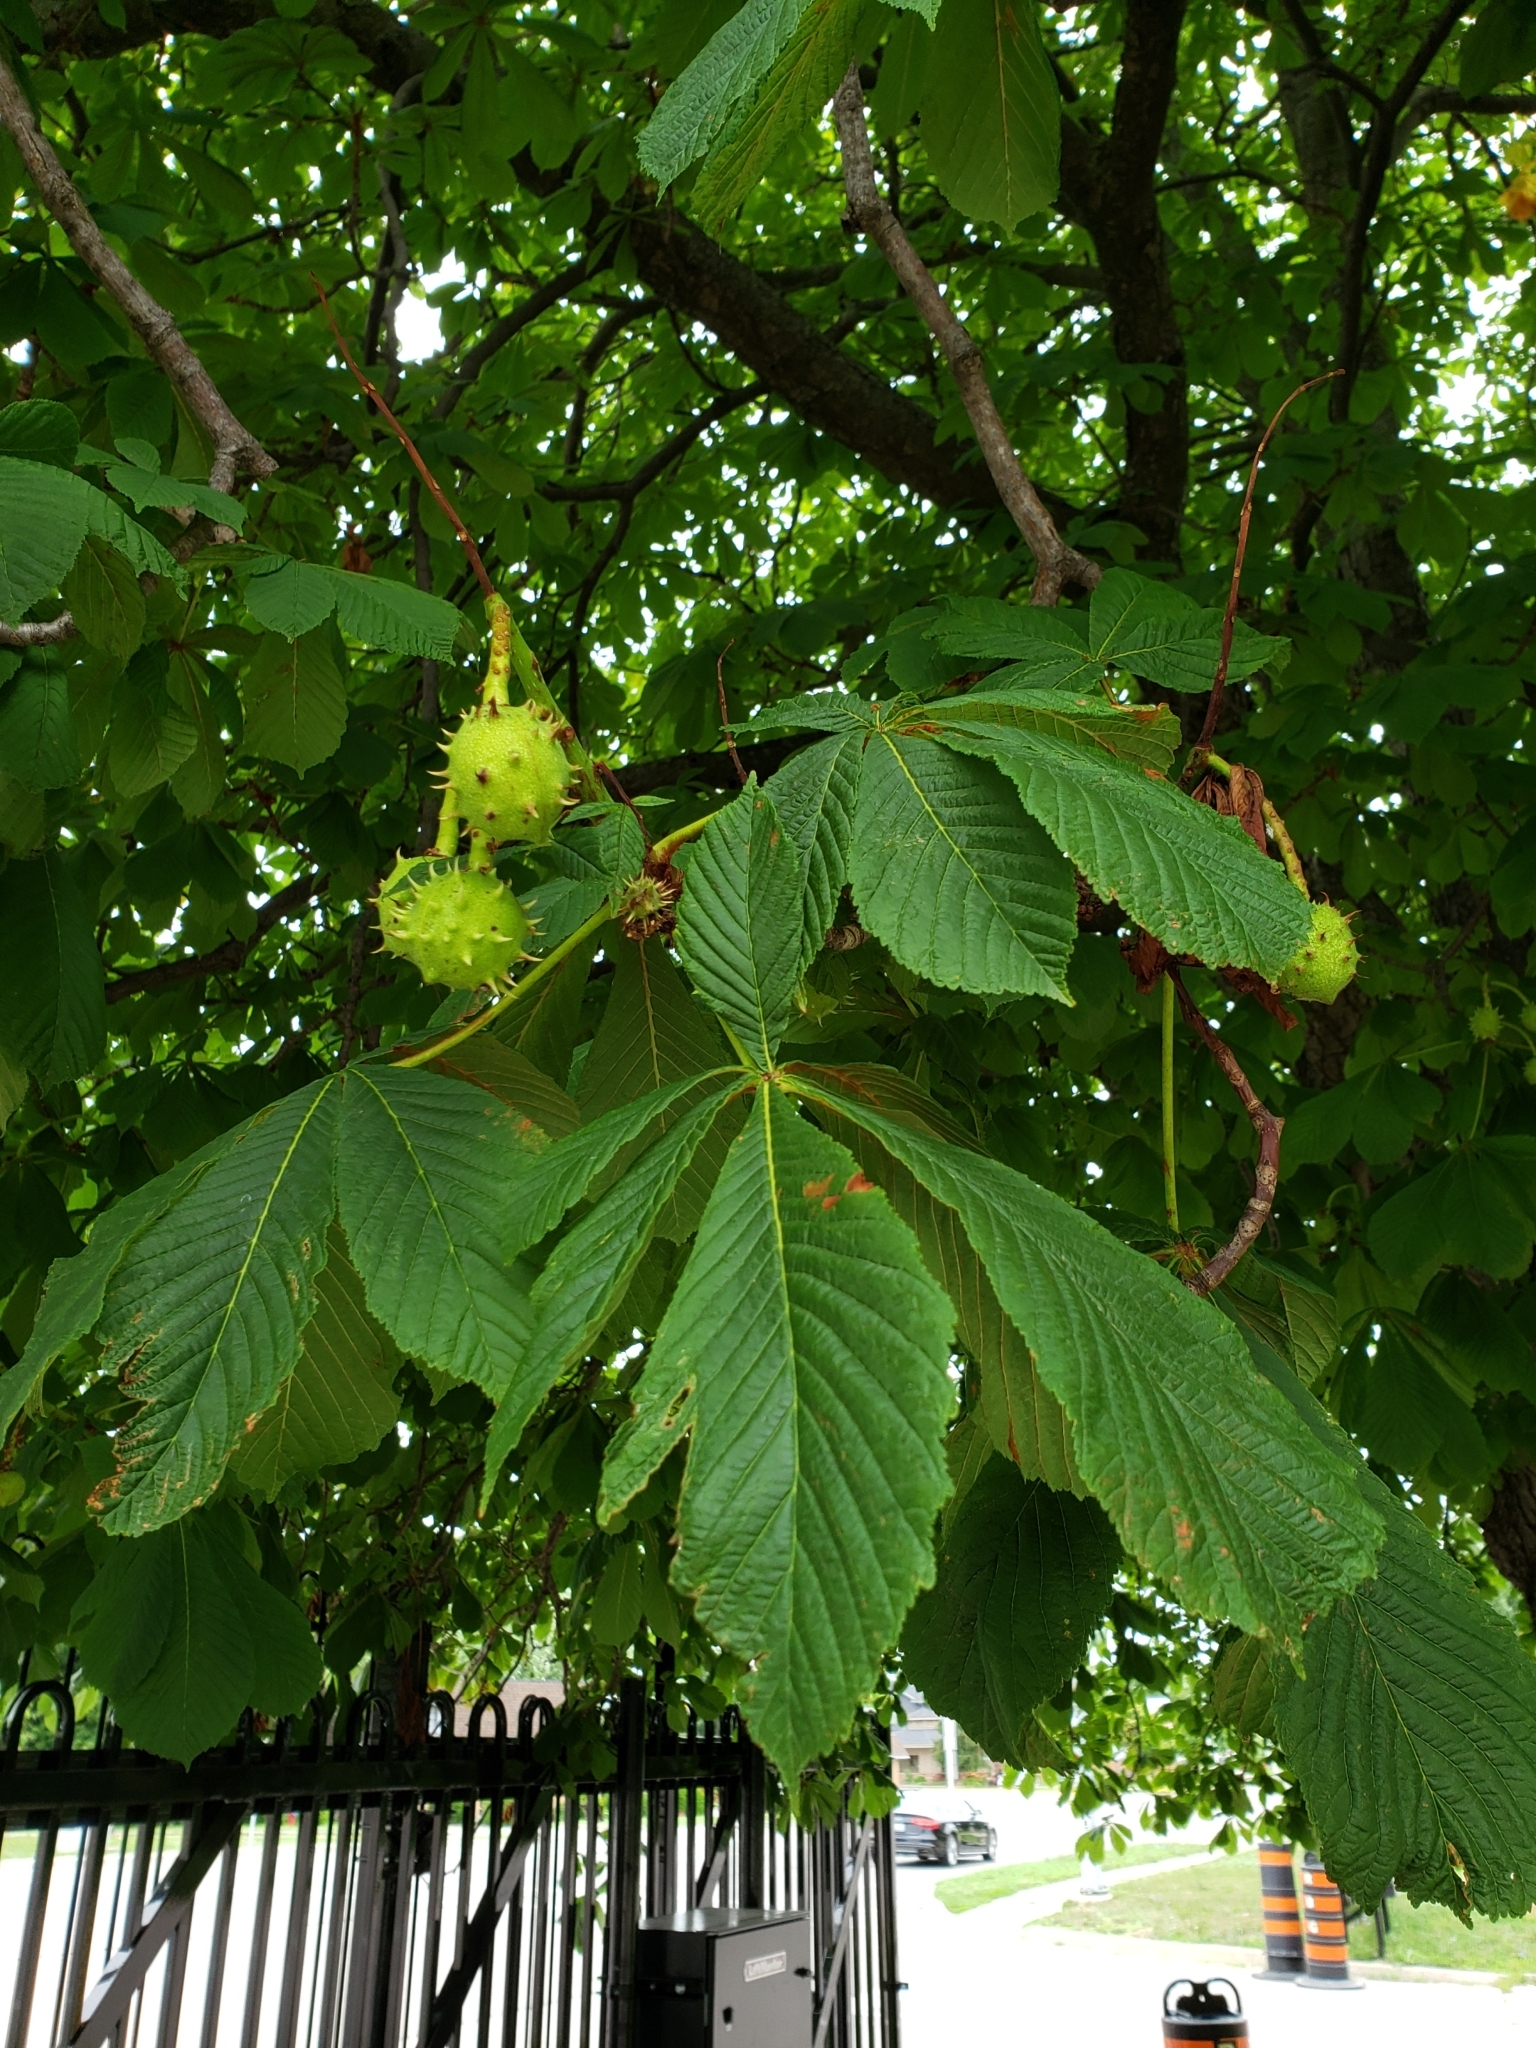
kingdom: Plantae
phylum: Tracheophyta
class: Magnoliopsida
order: Sapindales
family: Sapindaceae
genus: Aesculus
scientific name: Aesculus hippocastanum
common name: Horse-chestnut
